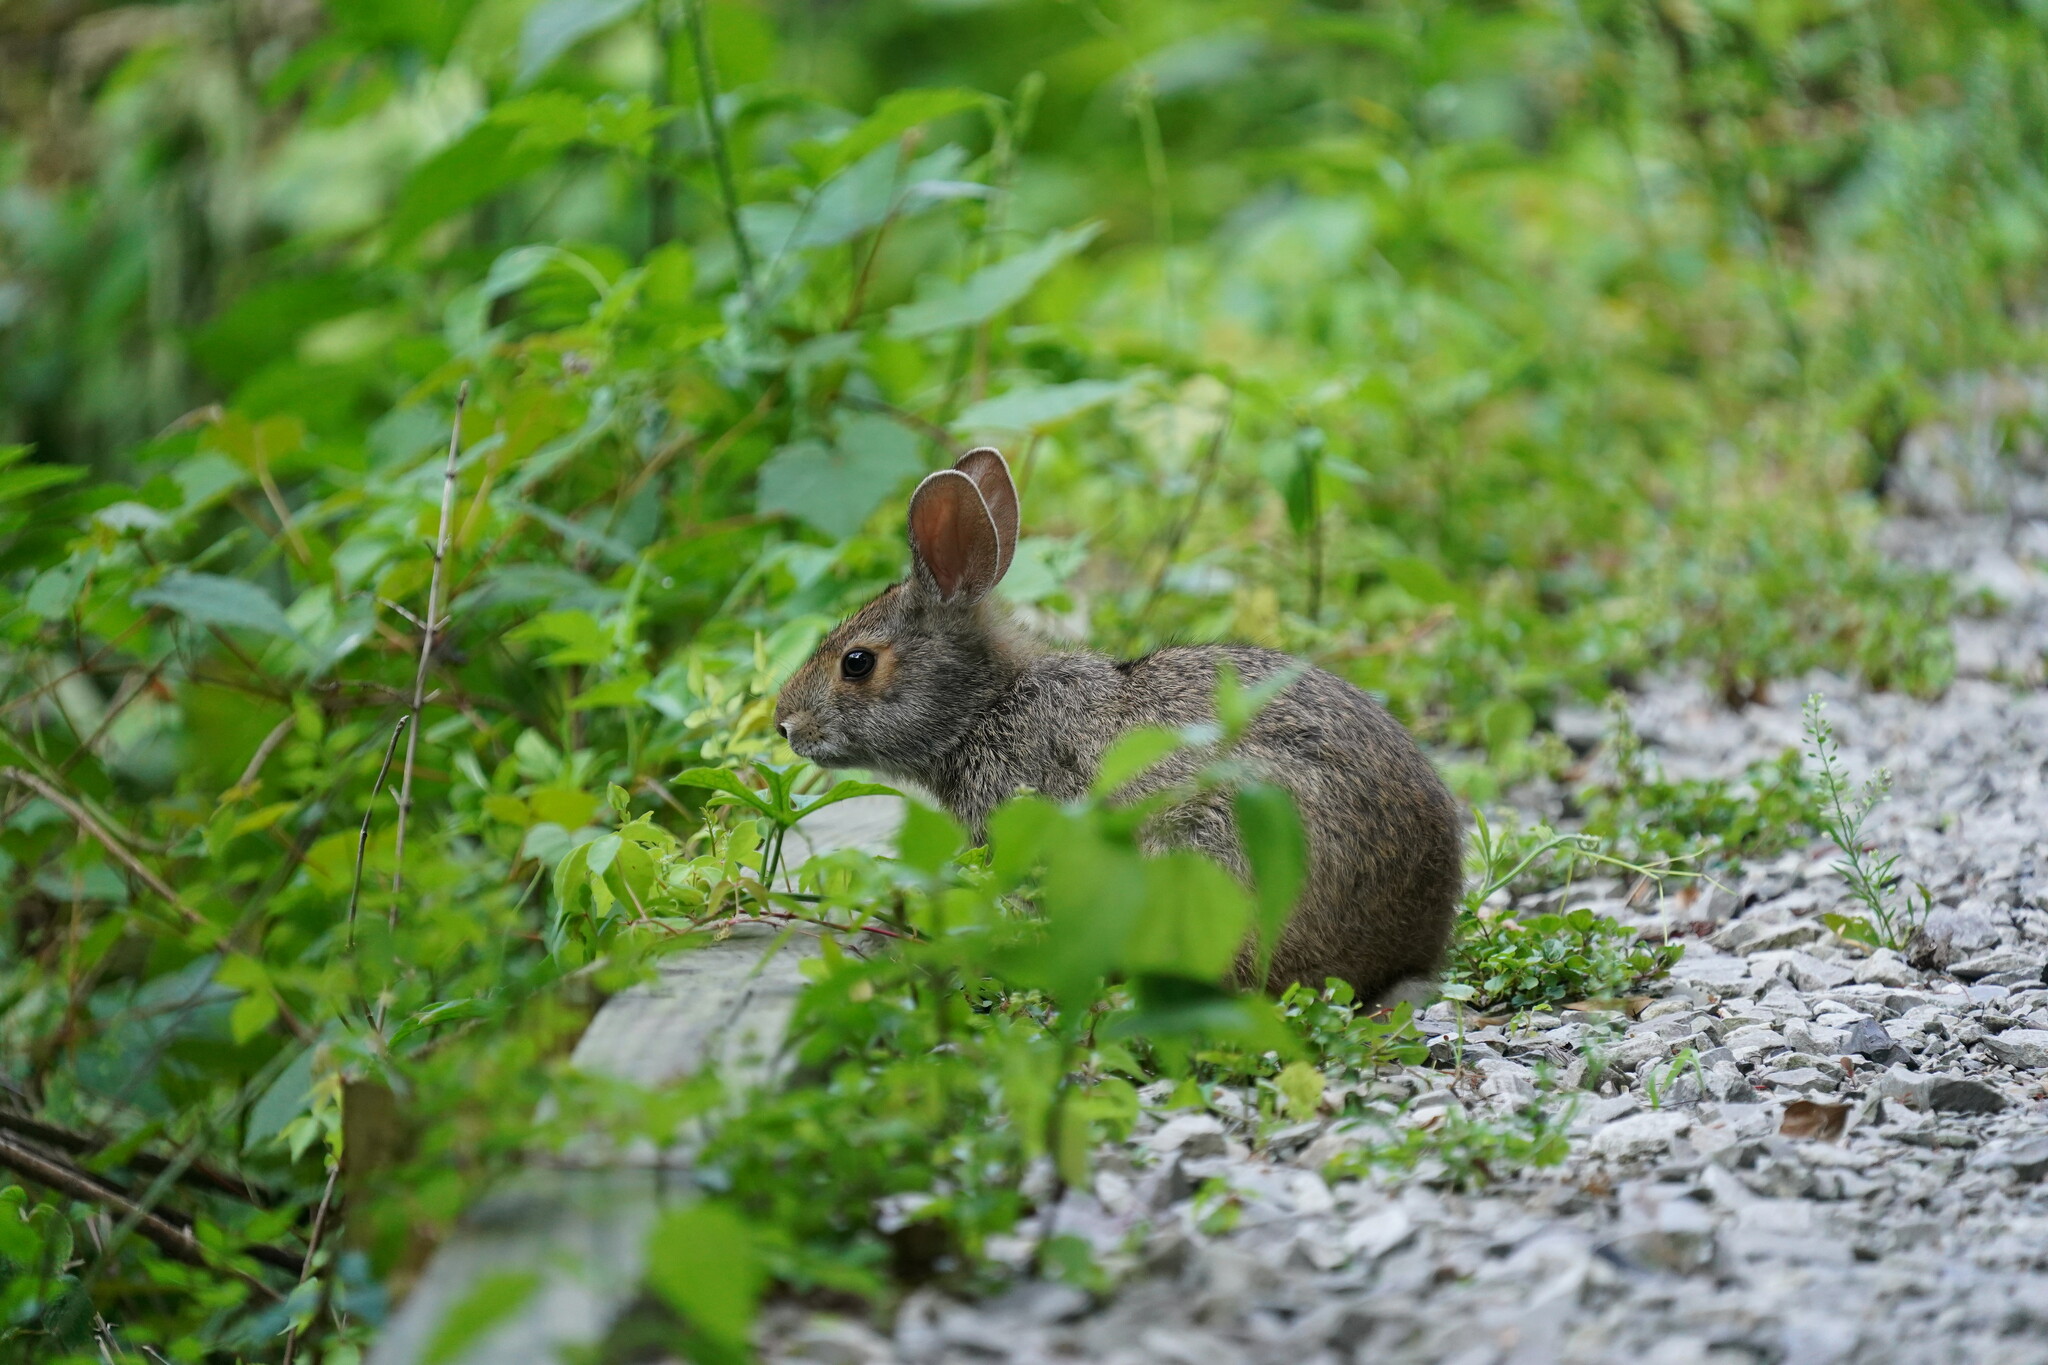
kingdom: Animalia
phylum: Chordata
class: Mammalia
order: Lagomorpha
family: Leporidae
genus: Sylvilagus
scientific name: Sylvilagus aquaticus
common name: Swamp rabbit
